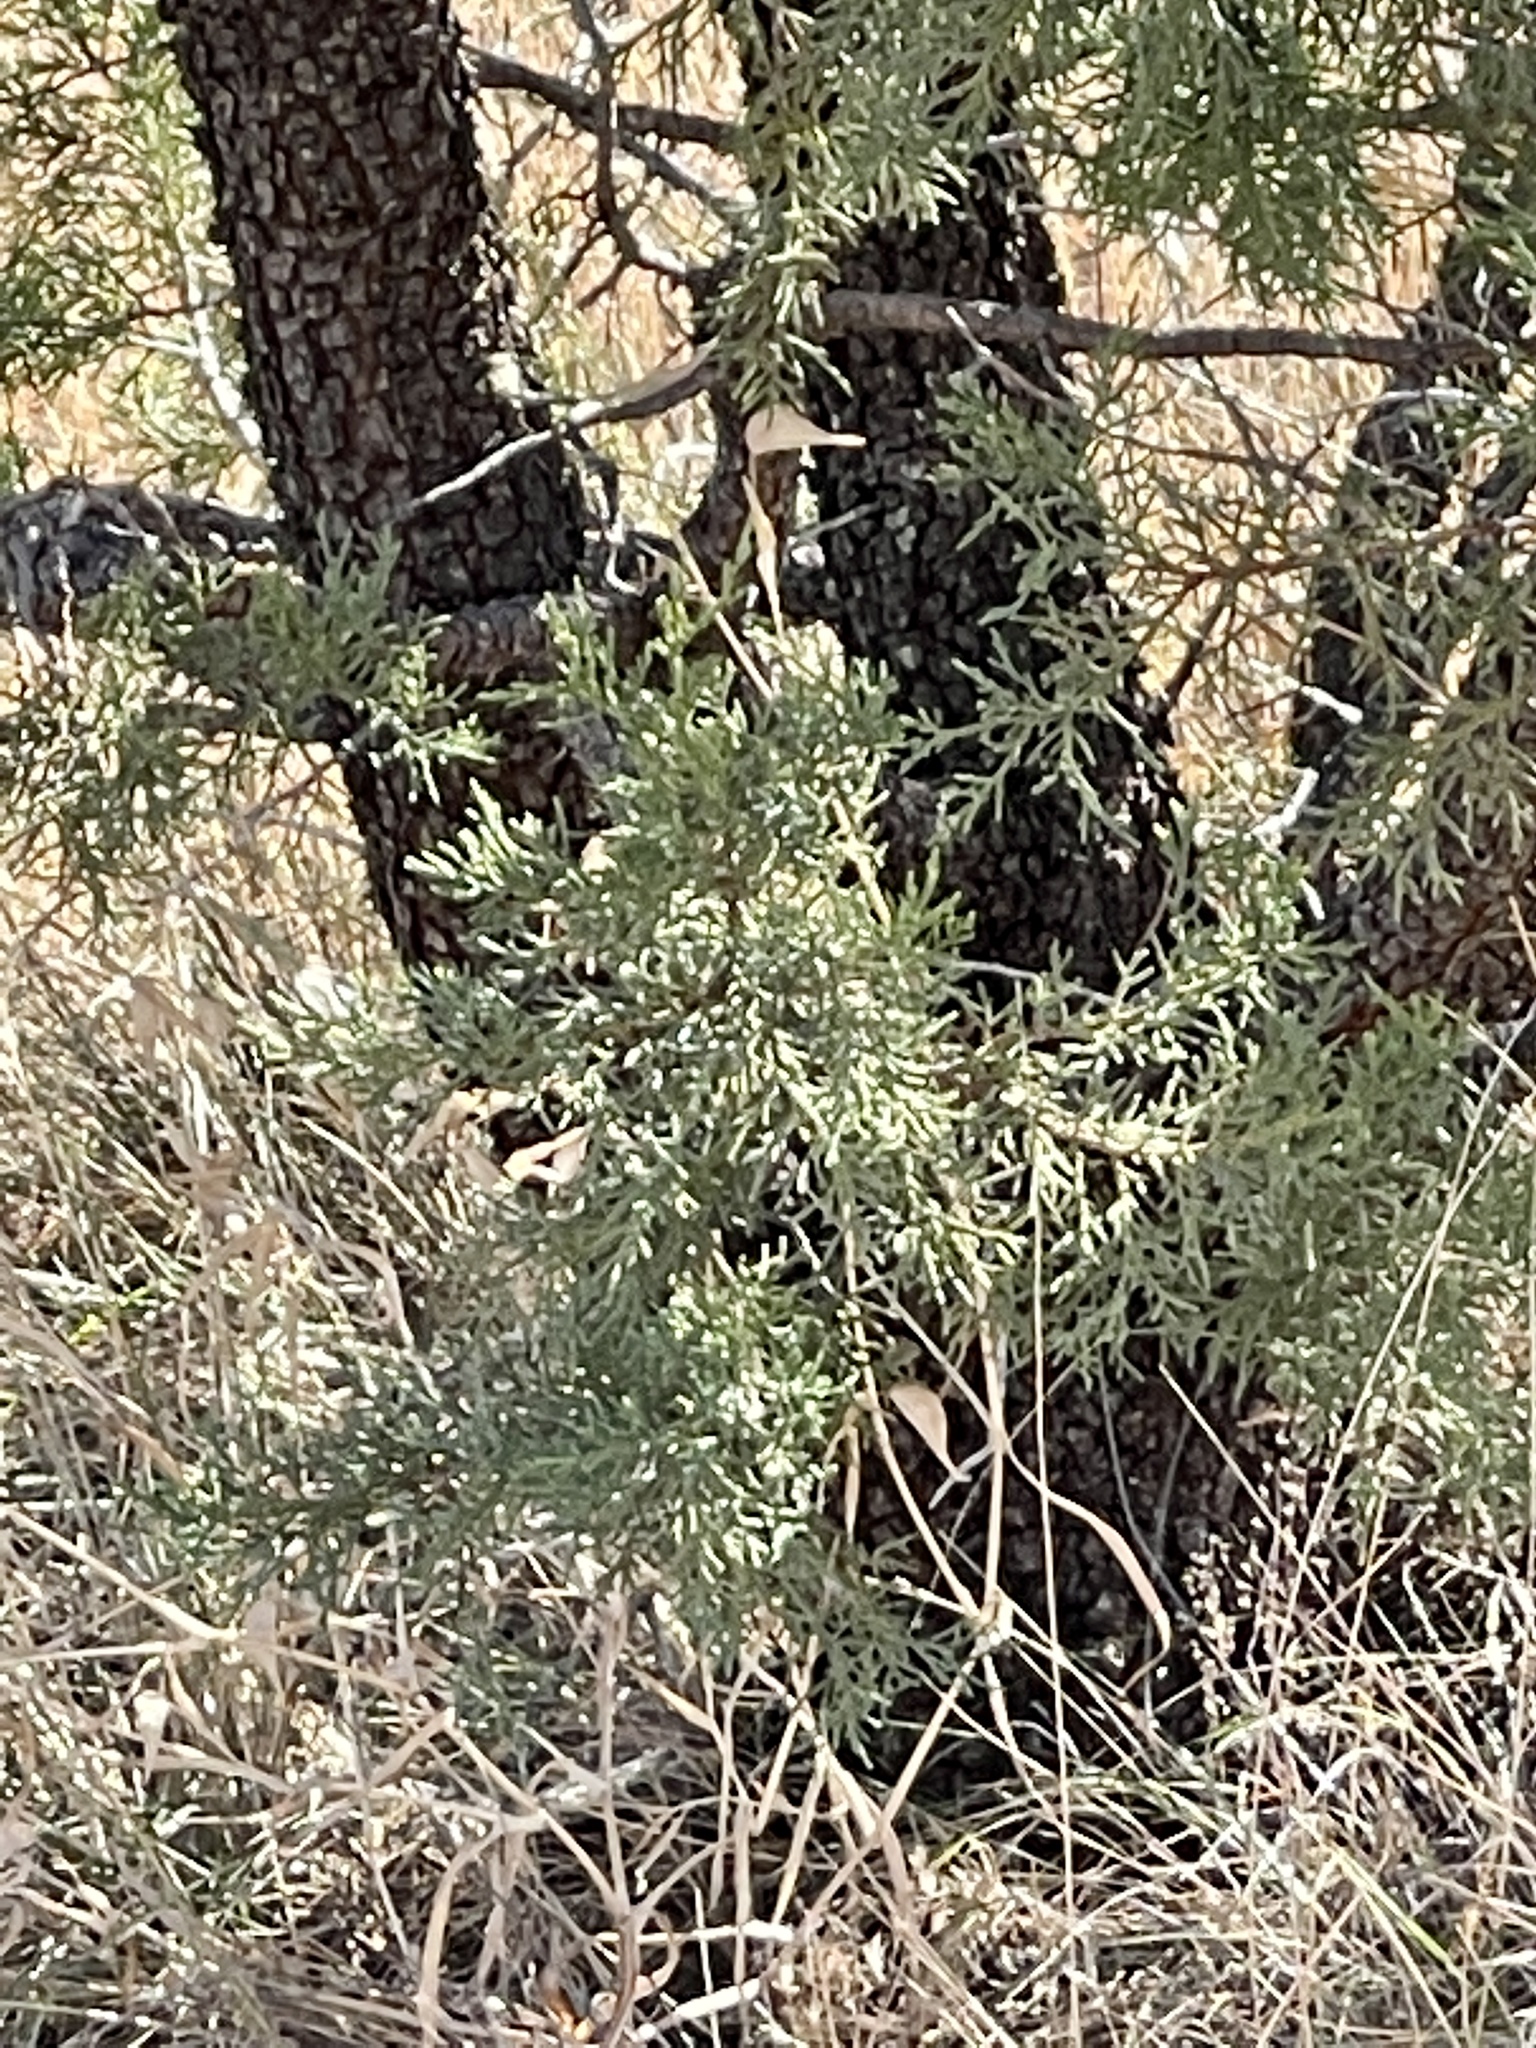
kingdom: Plantae
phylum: Tracheophyta
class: Pinopsida
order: Pinales
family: Cupressaceae
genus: Juniperus
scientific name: Juniperus deppeana
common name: Alligator juniper
